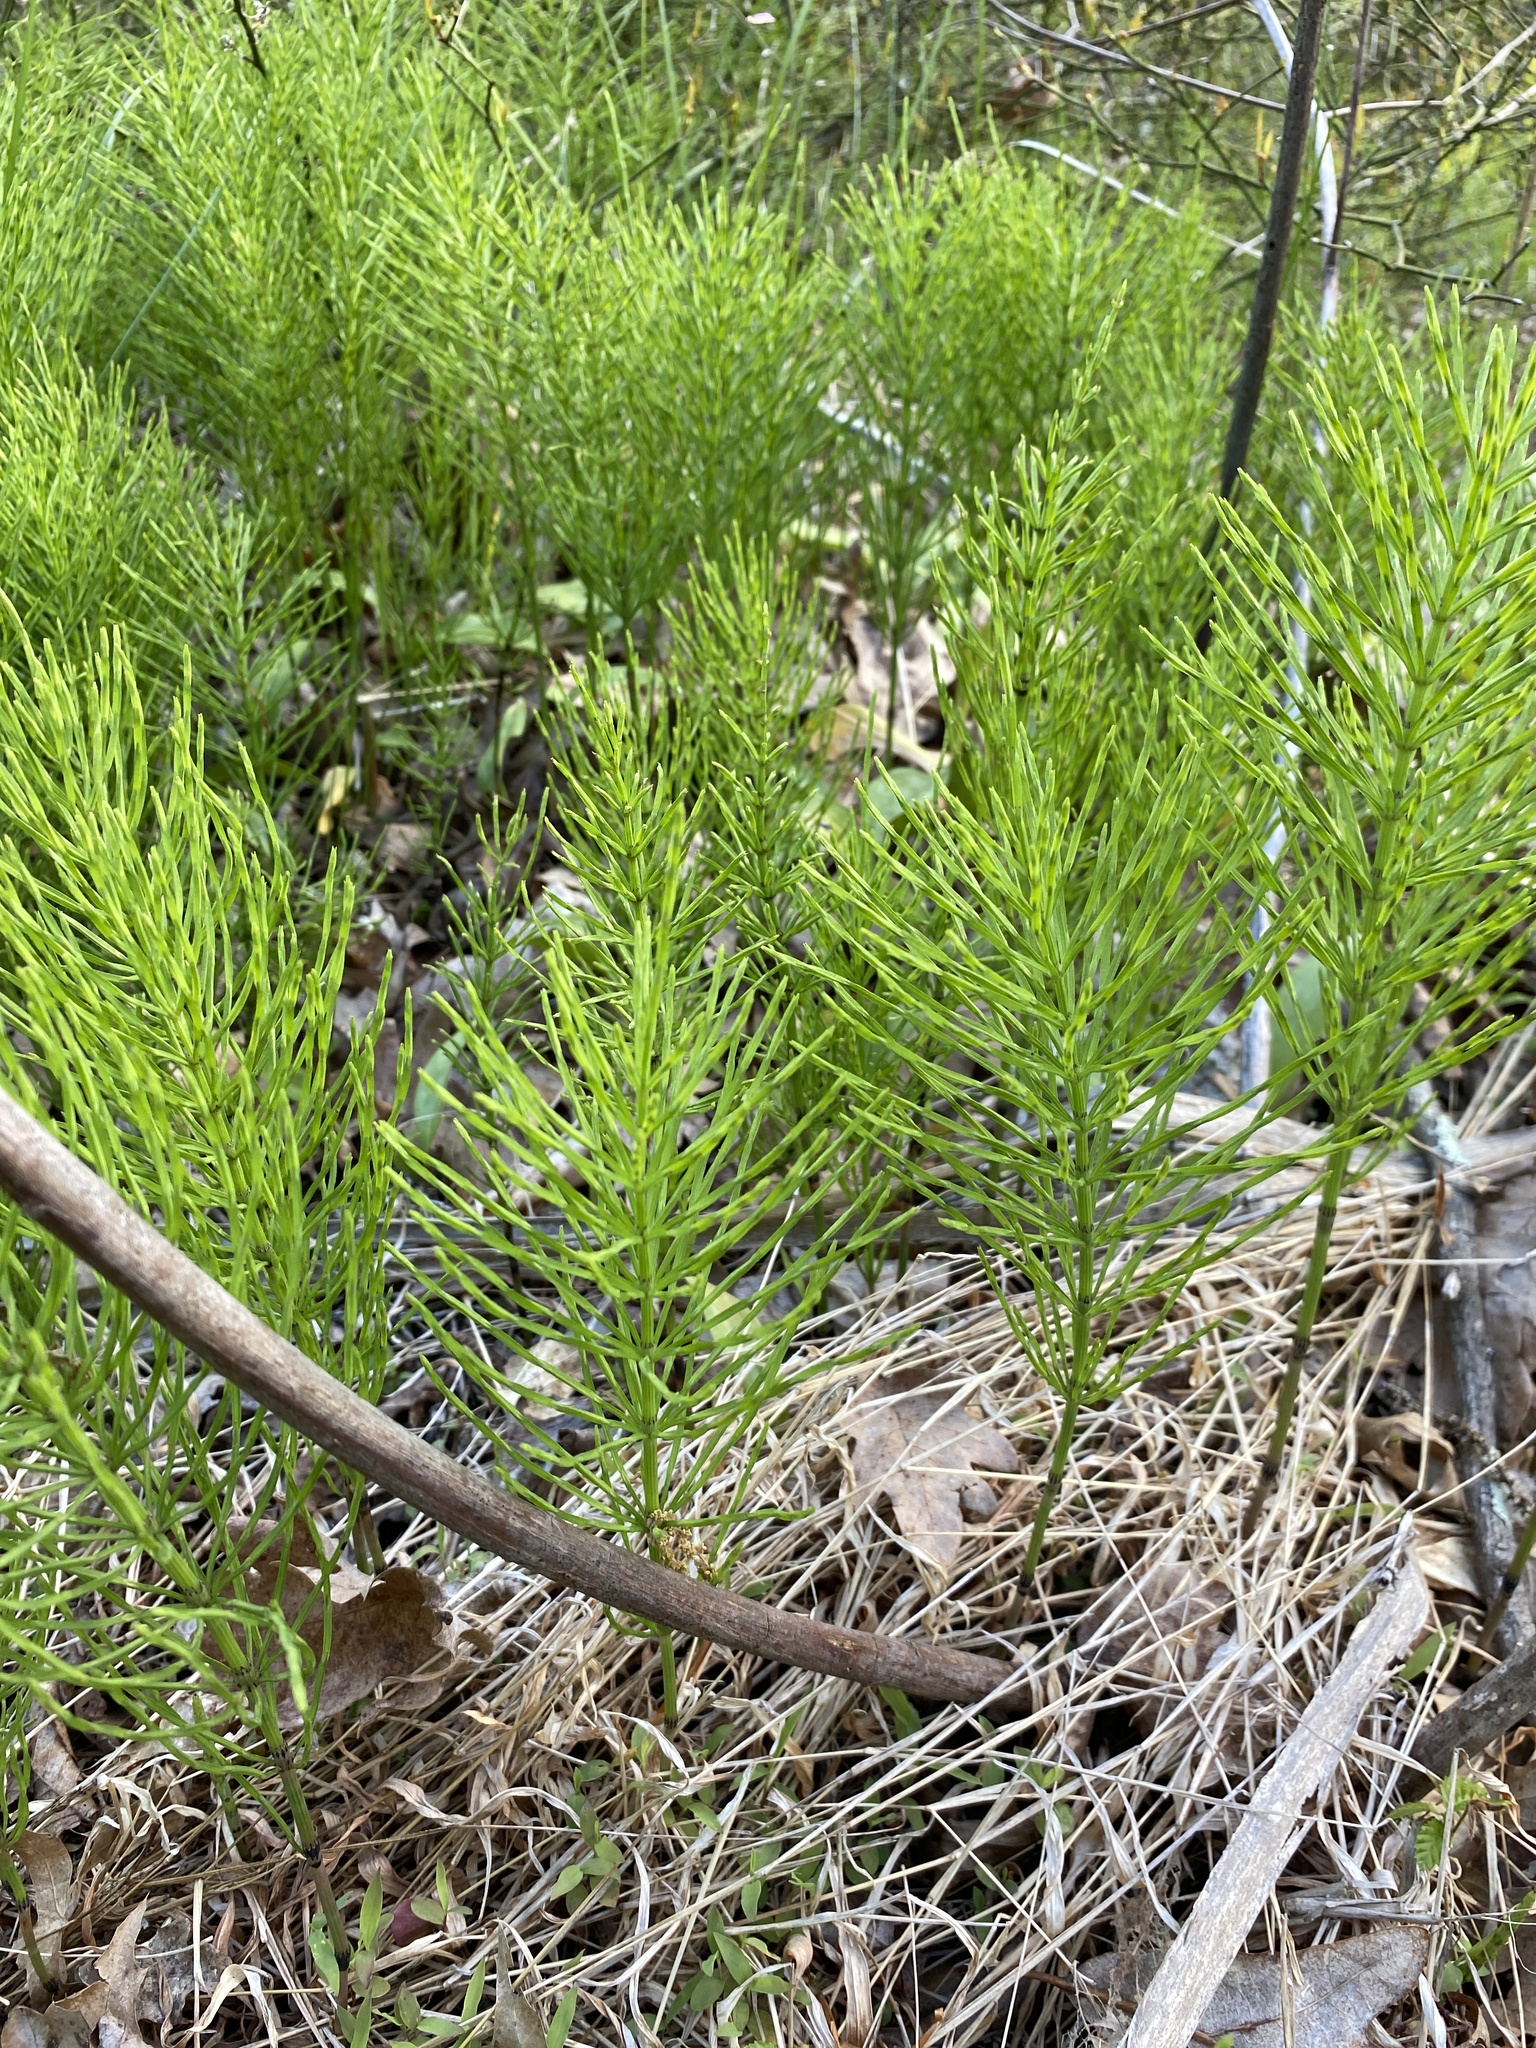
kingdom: Plantae
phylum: Tracheophyta
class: Polypodiopsida
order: Equisetales
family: Equisetaceae
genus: Equisetum
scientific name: Equisetum arvense
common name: Field horsetail
